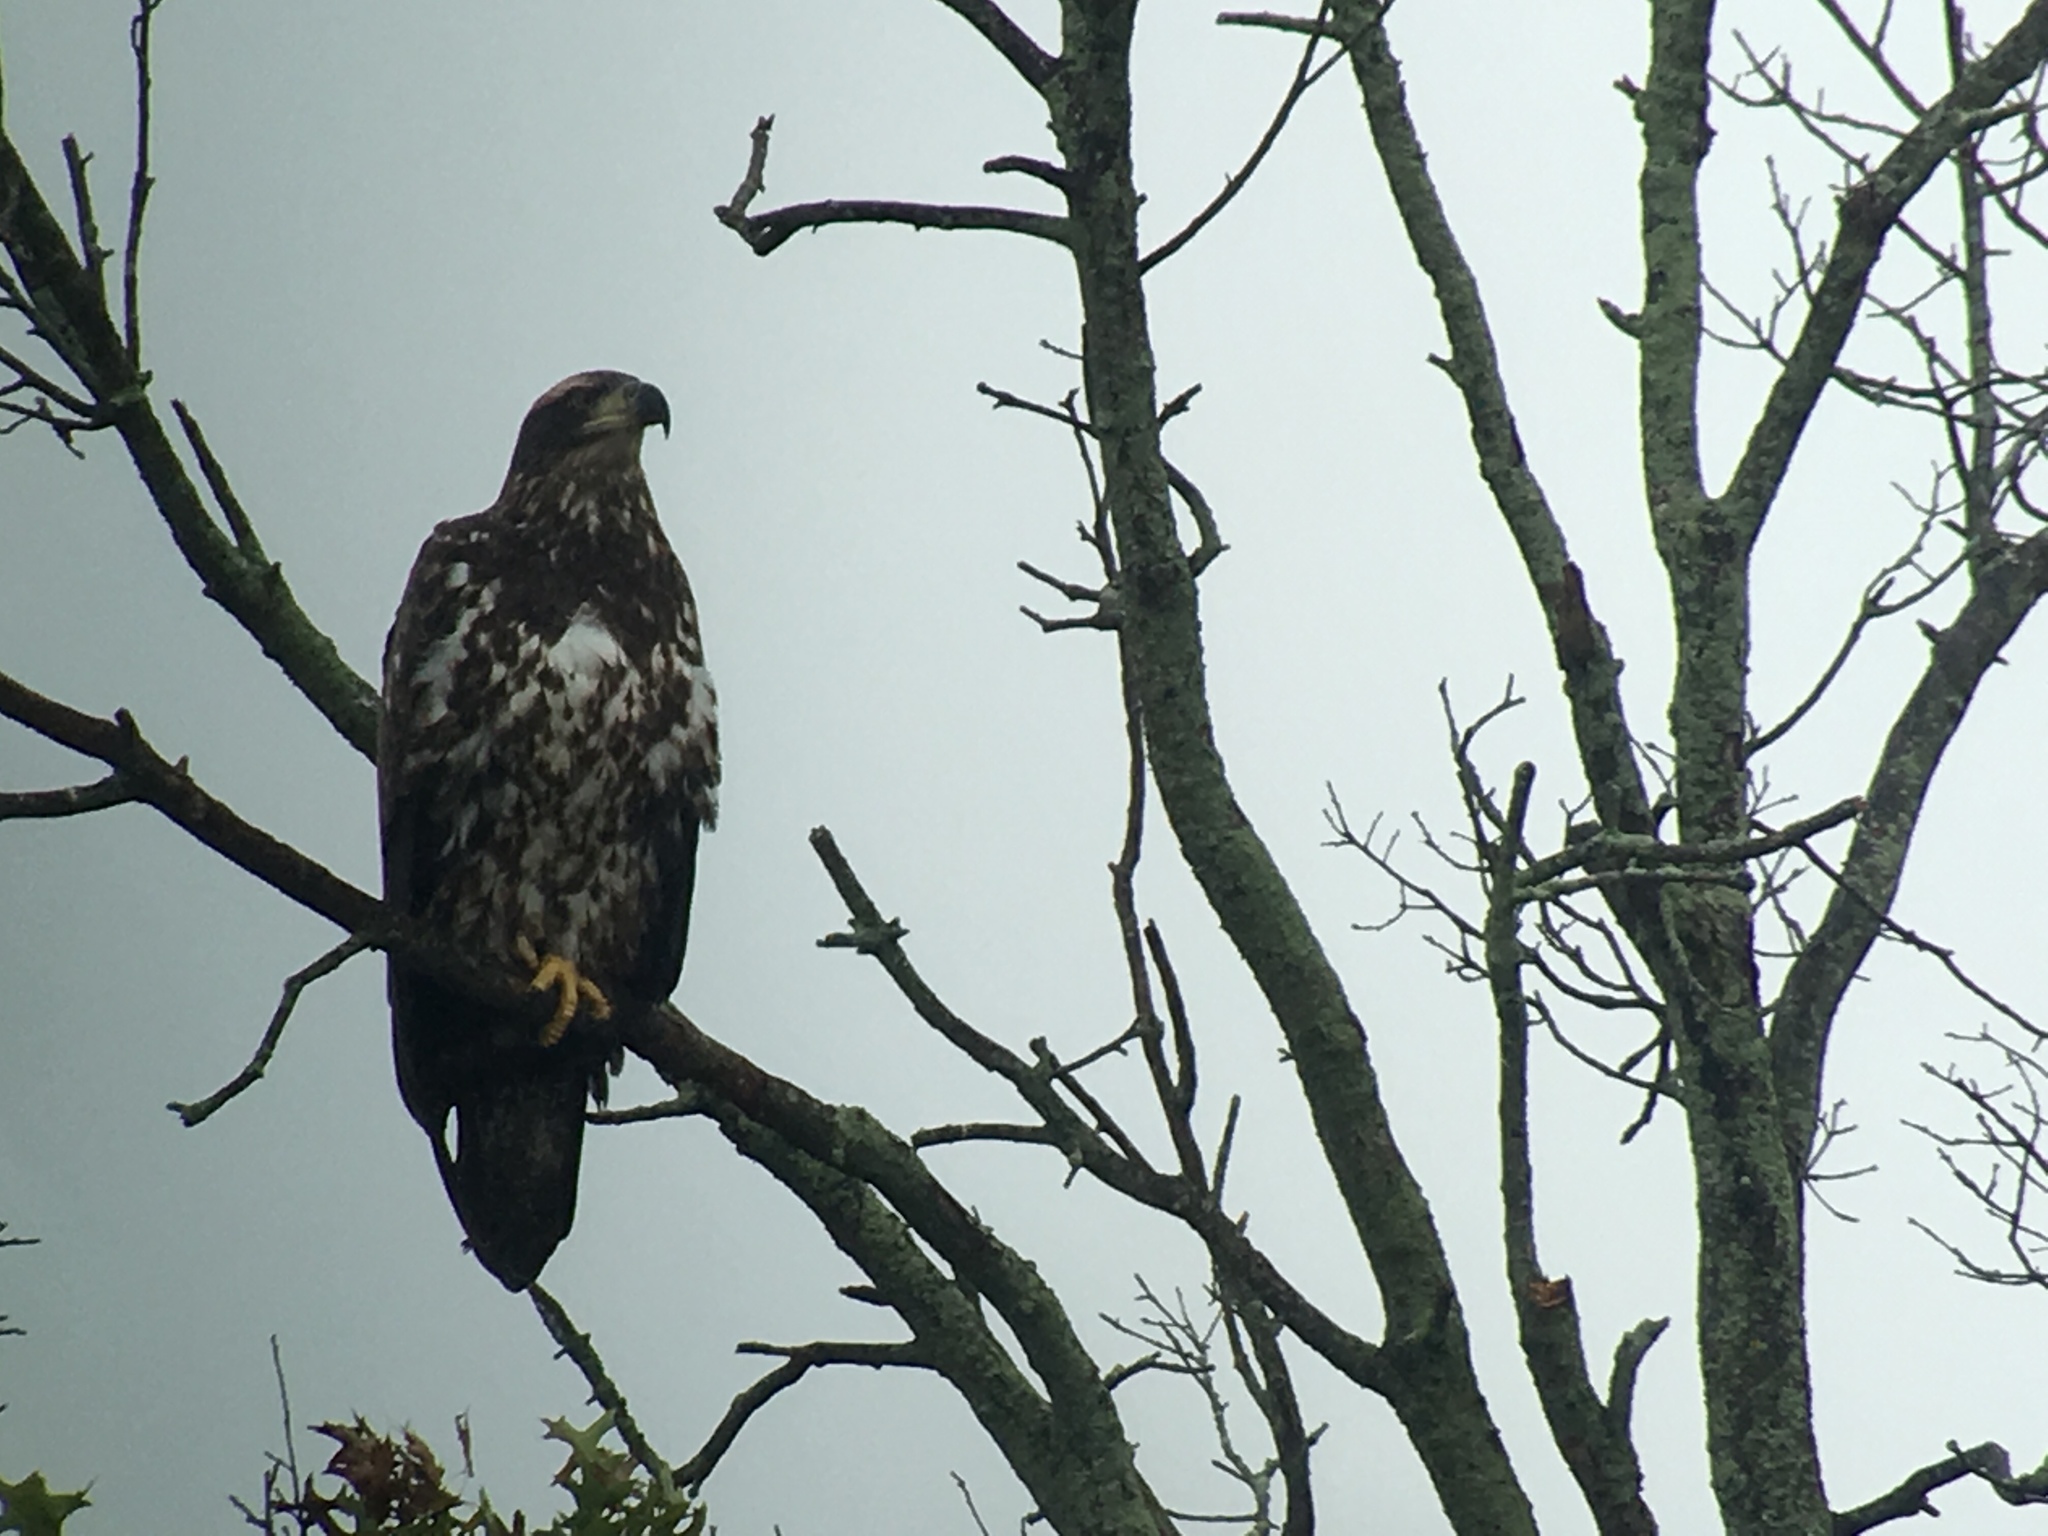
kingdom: Animalia
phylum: Chordata
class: Aves
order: Accipitriformes
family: Accipitridae
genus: Haliaeetus
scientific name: Haliaeetus leucocephalus
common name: Bald eagle
